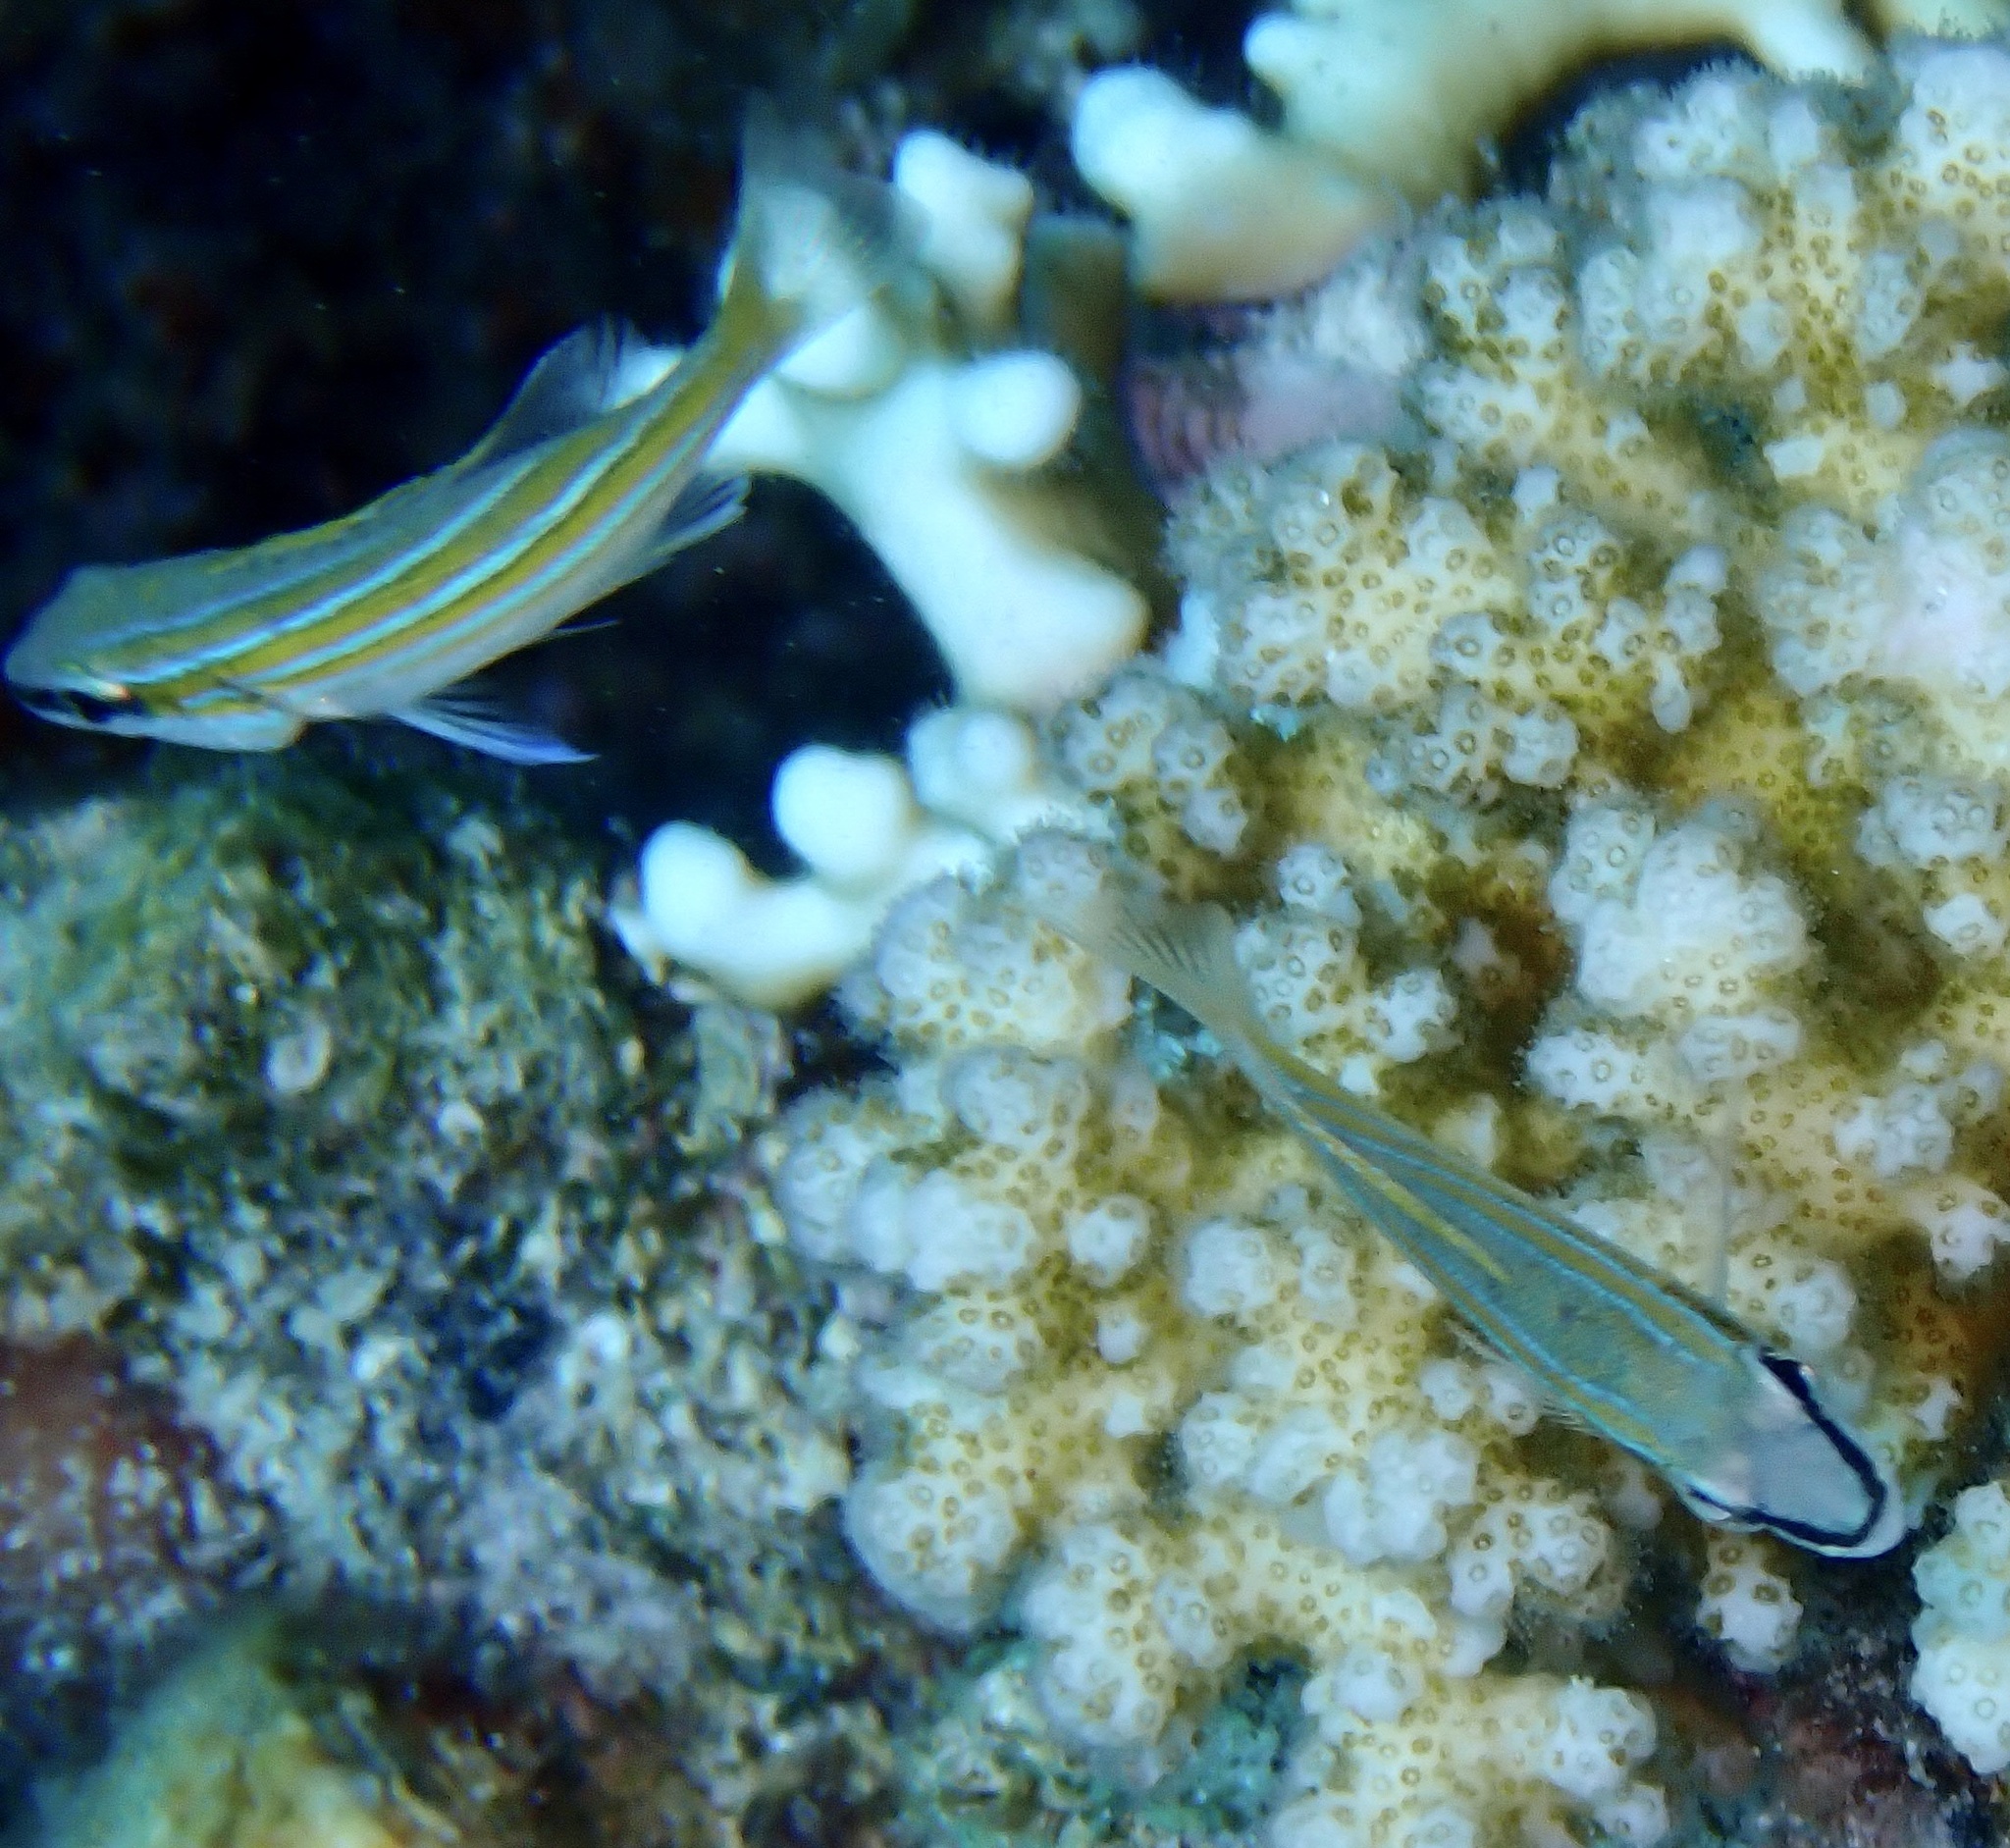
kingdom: Animalia
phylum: Chordata
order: Perciformes
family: Lutjanidae
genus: Lutjanus
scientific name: Lutjanus kasmira
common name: Common bluestripe snapper
